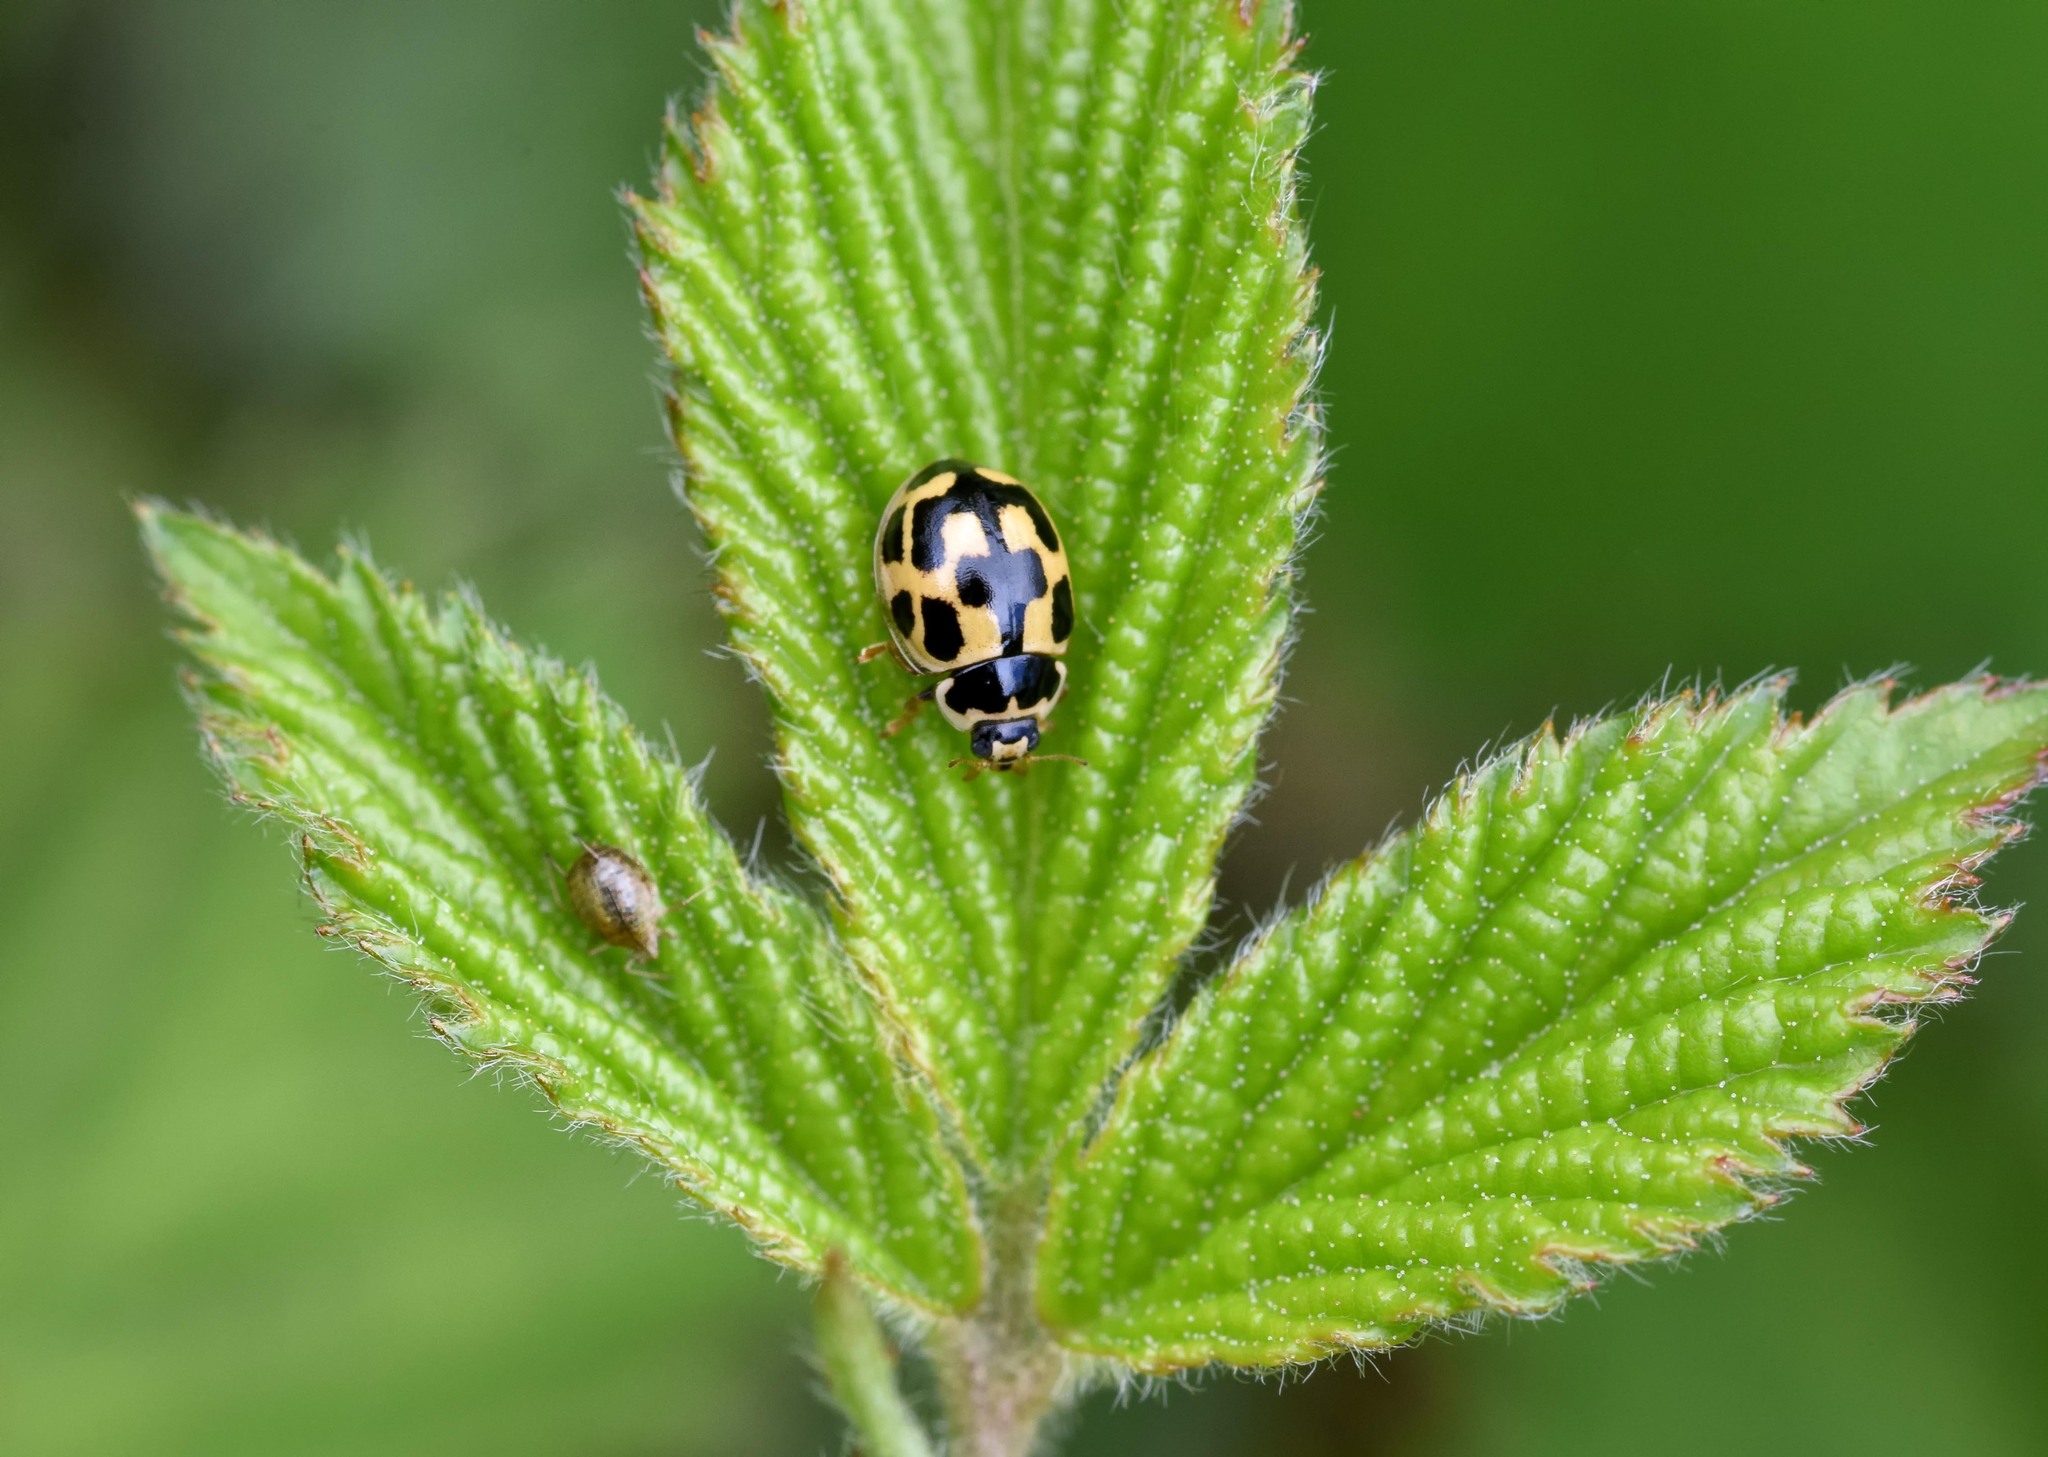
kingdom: Animalia
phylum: Arthropoda
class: Insecta
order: Coleoptera
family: Coccinellidae
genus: Propylaea
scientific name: Propylaea quatuordecimpunctata
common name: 14-spotted ladybird beetle
